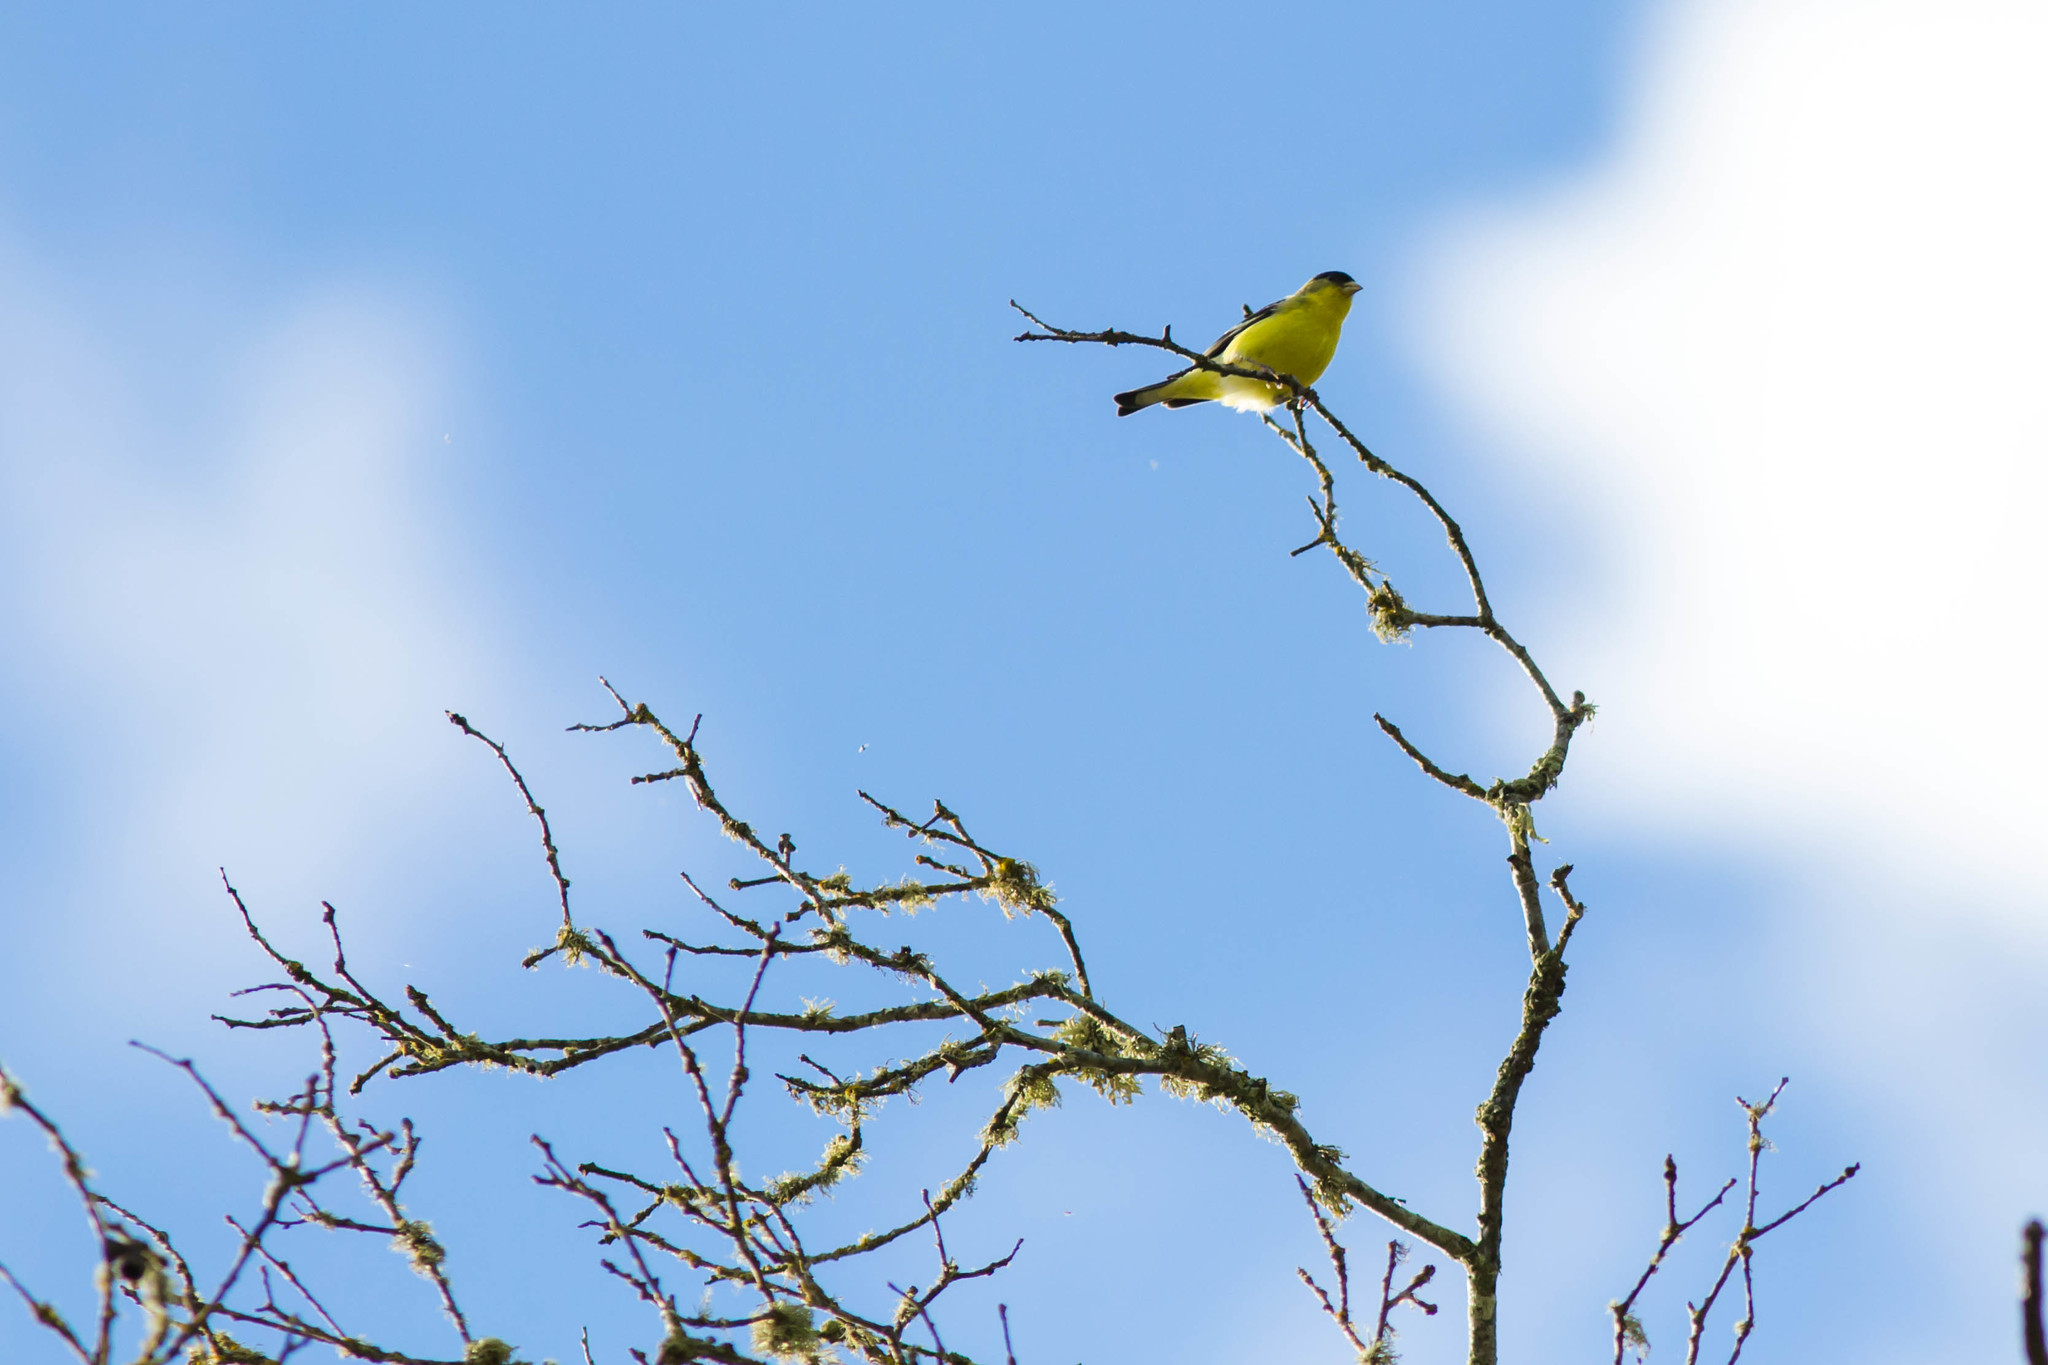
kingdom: Animalia
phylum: Chordata
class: Aves
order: Passeriformes
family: Fringillidae
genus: Spinus
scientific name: Spinus psaltria
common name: Lesser goldfinch
